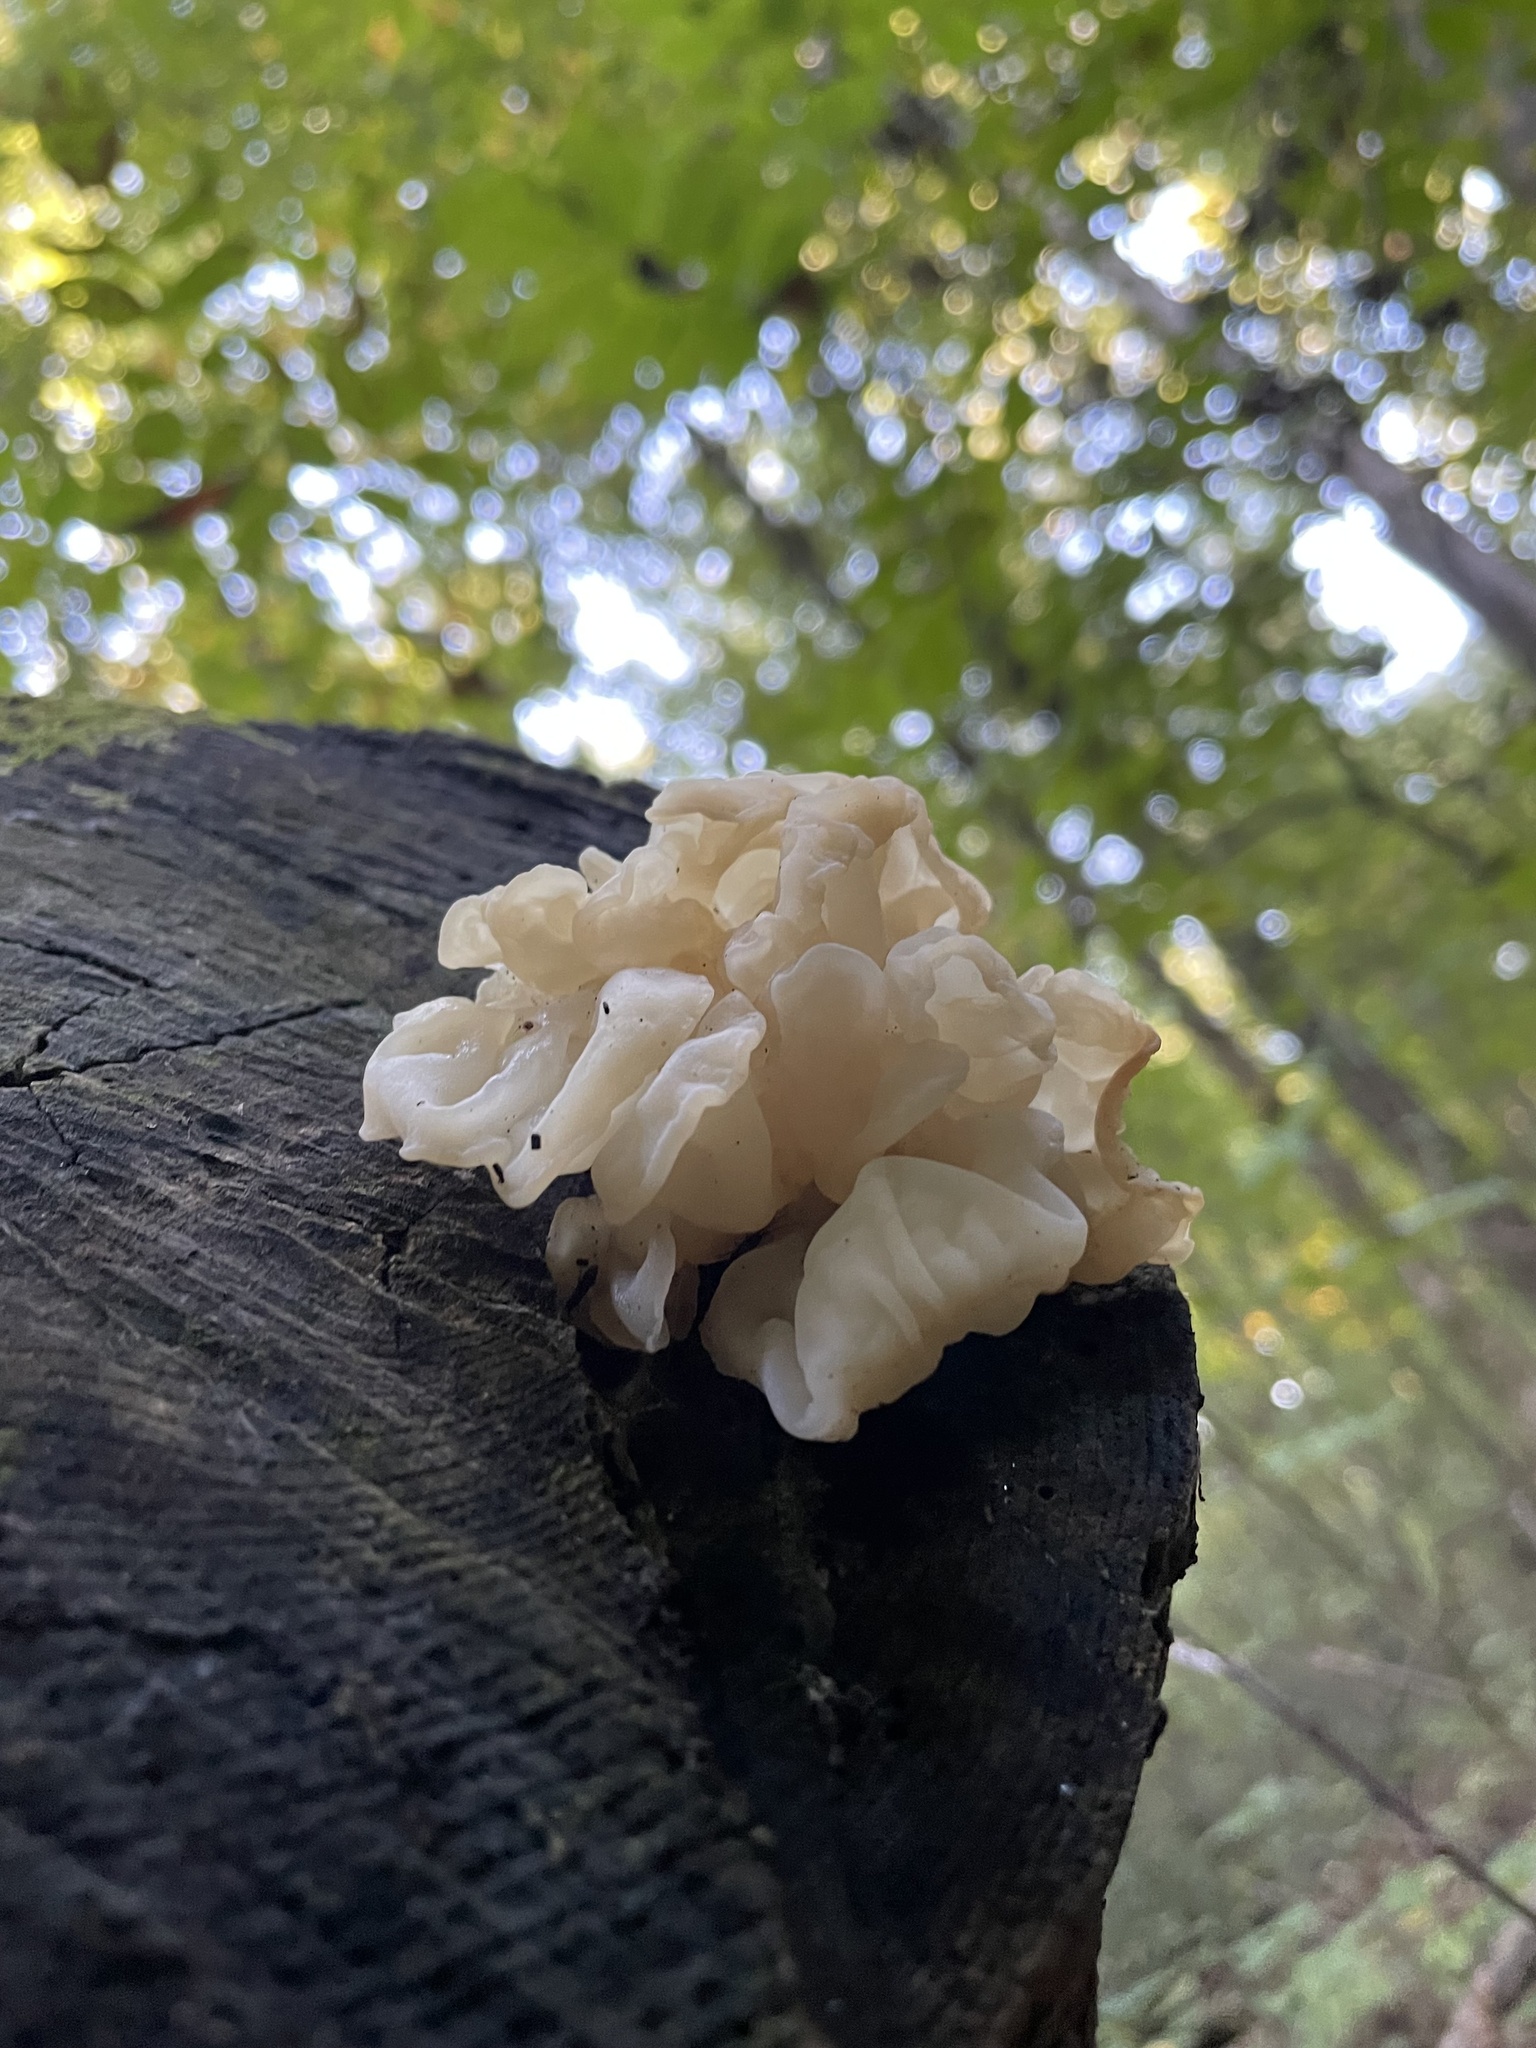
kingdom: Fungi
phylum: Basidiomycota
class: Agaricomycetes
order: Auriculariales
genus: Ductifera
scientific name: Ductifera pululahuana
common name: White jelly fungus
